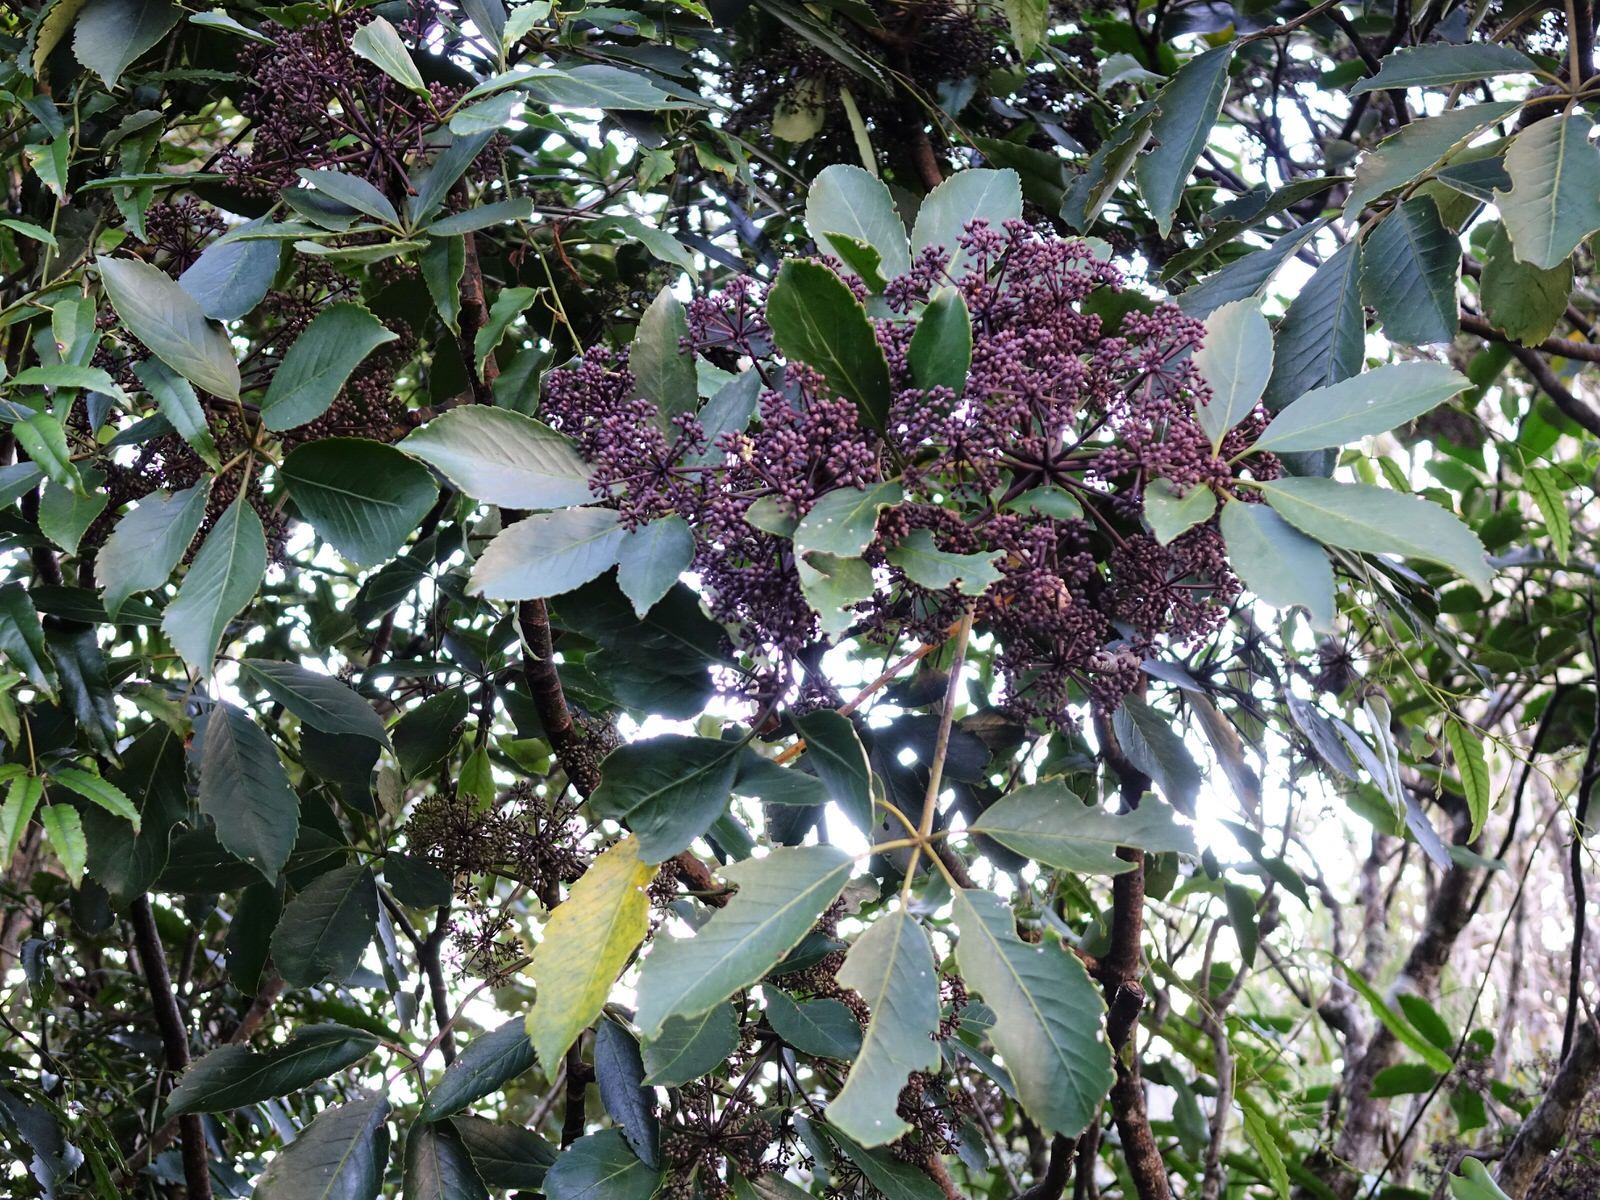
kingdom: Plantae
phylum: Tracheophyta
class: Magnoliopsida
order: Apiales
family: Araliaceae
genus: Neopanax
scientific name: Neopanax arboreus
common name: Five-fingers
